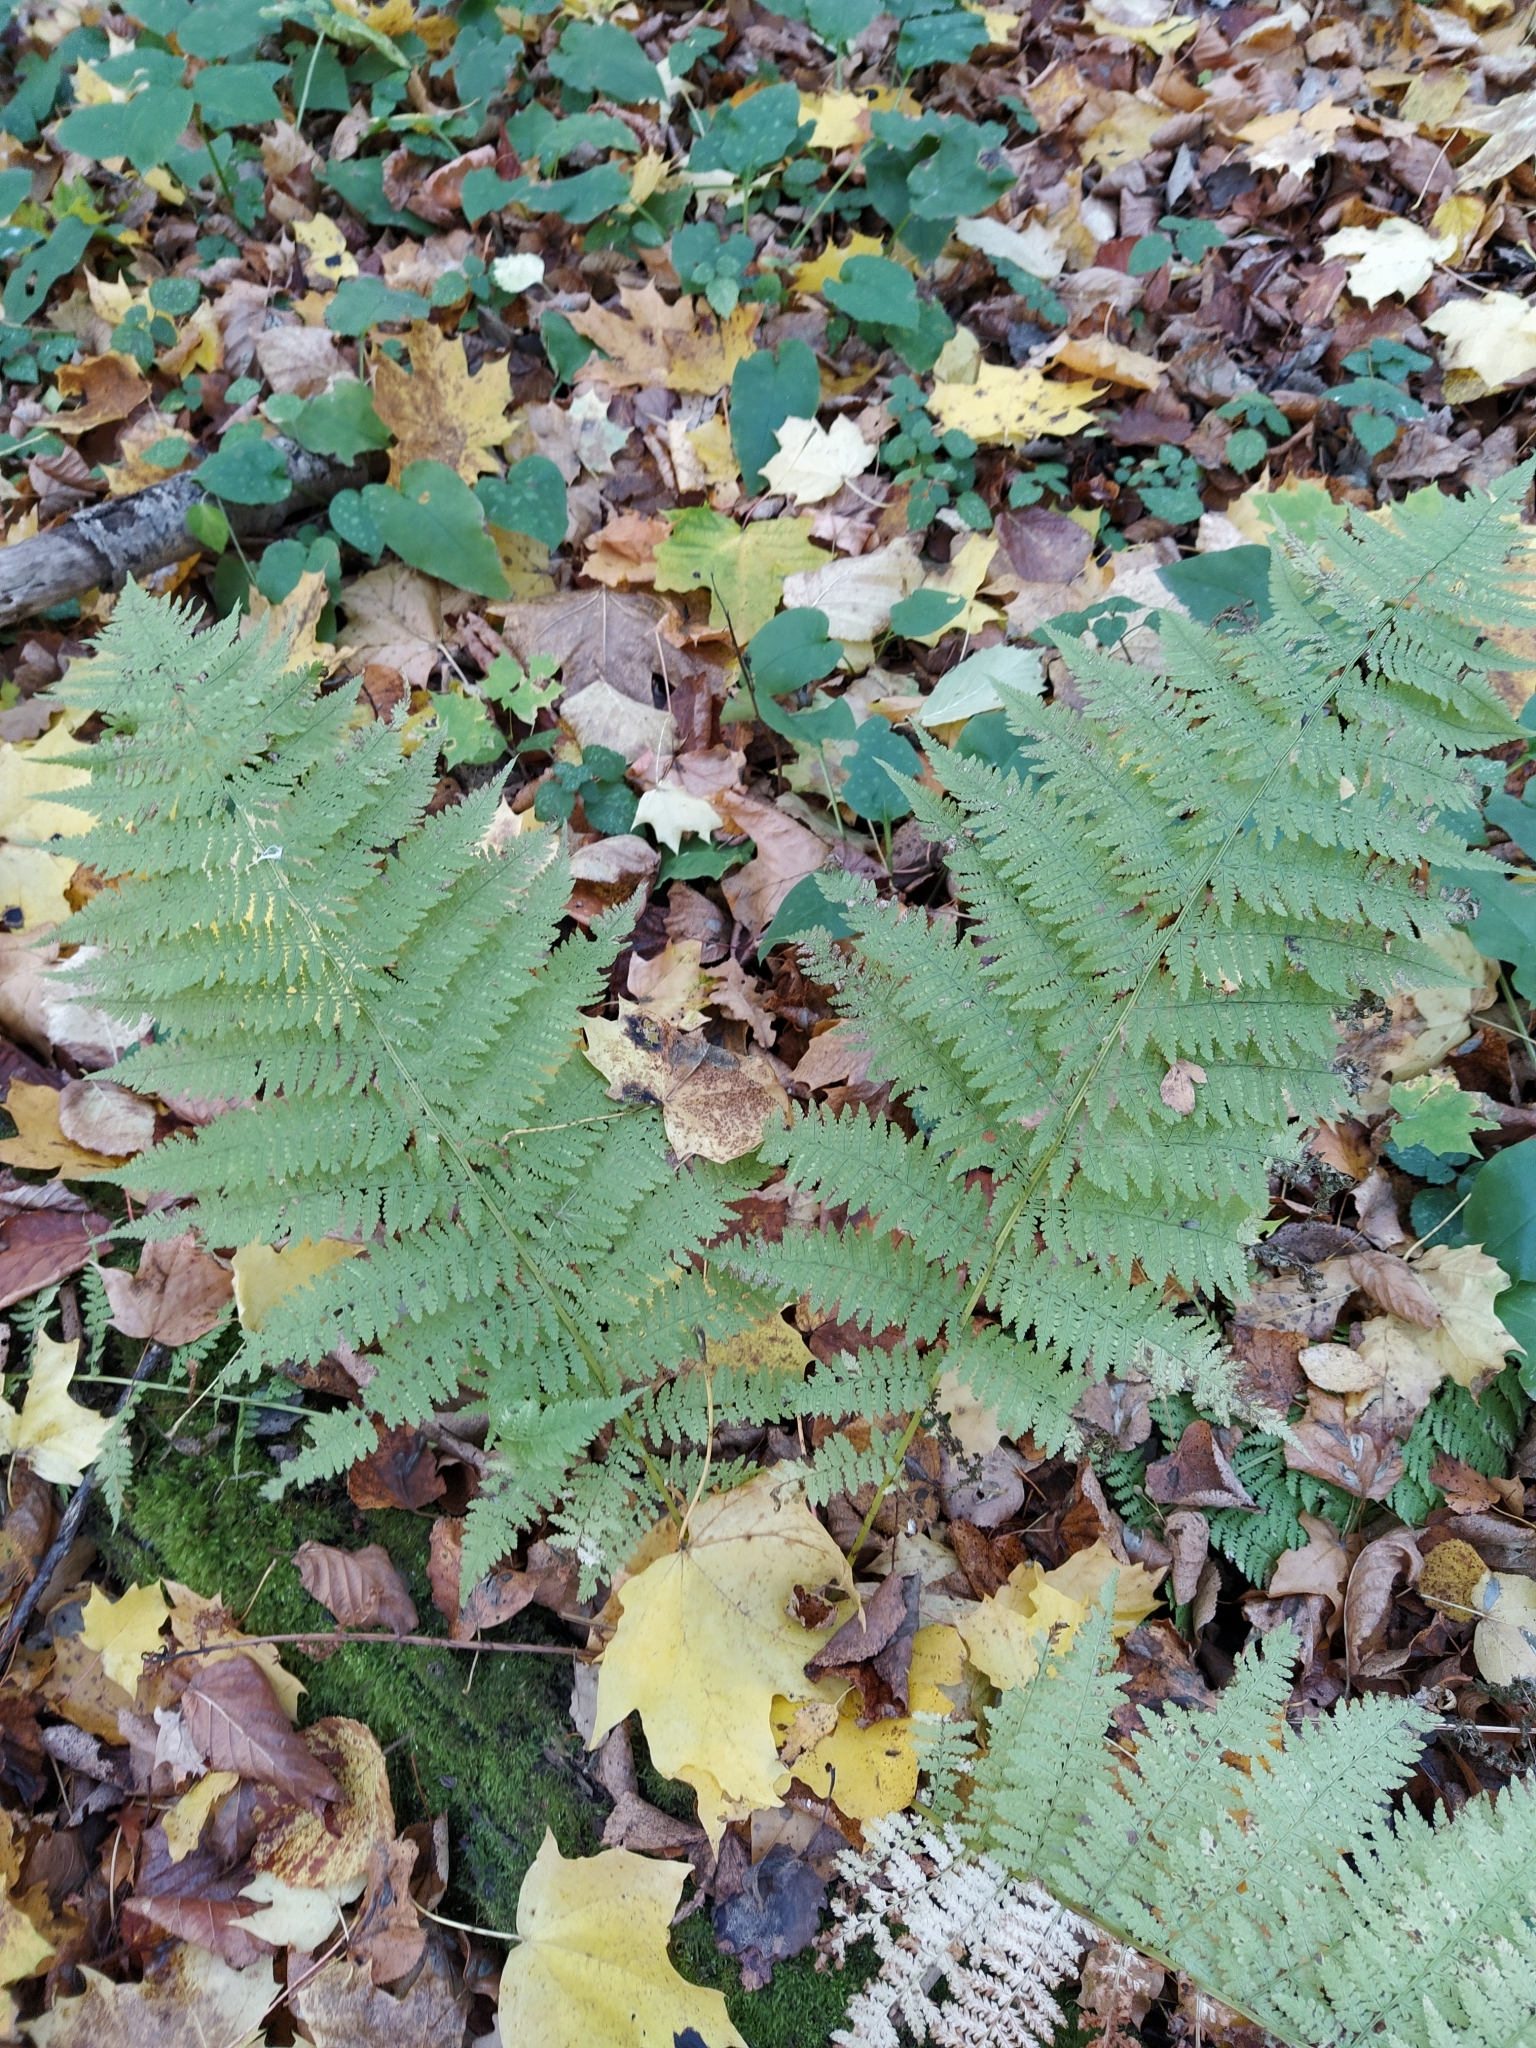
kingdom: Plantae
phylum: Tracheophyta
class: Polypodiopsida
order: Polypodiales
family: Athyriaceae
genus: Athyrium
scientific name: Athyrium filix-femina
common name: Lady fern
